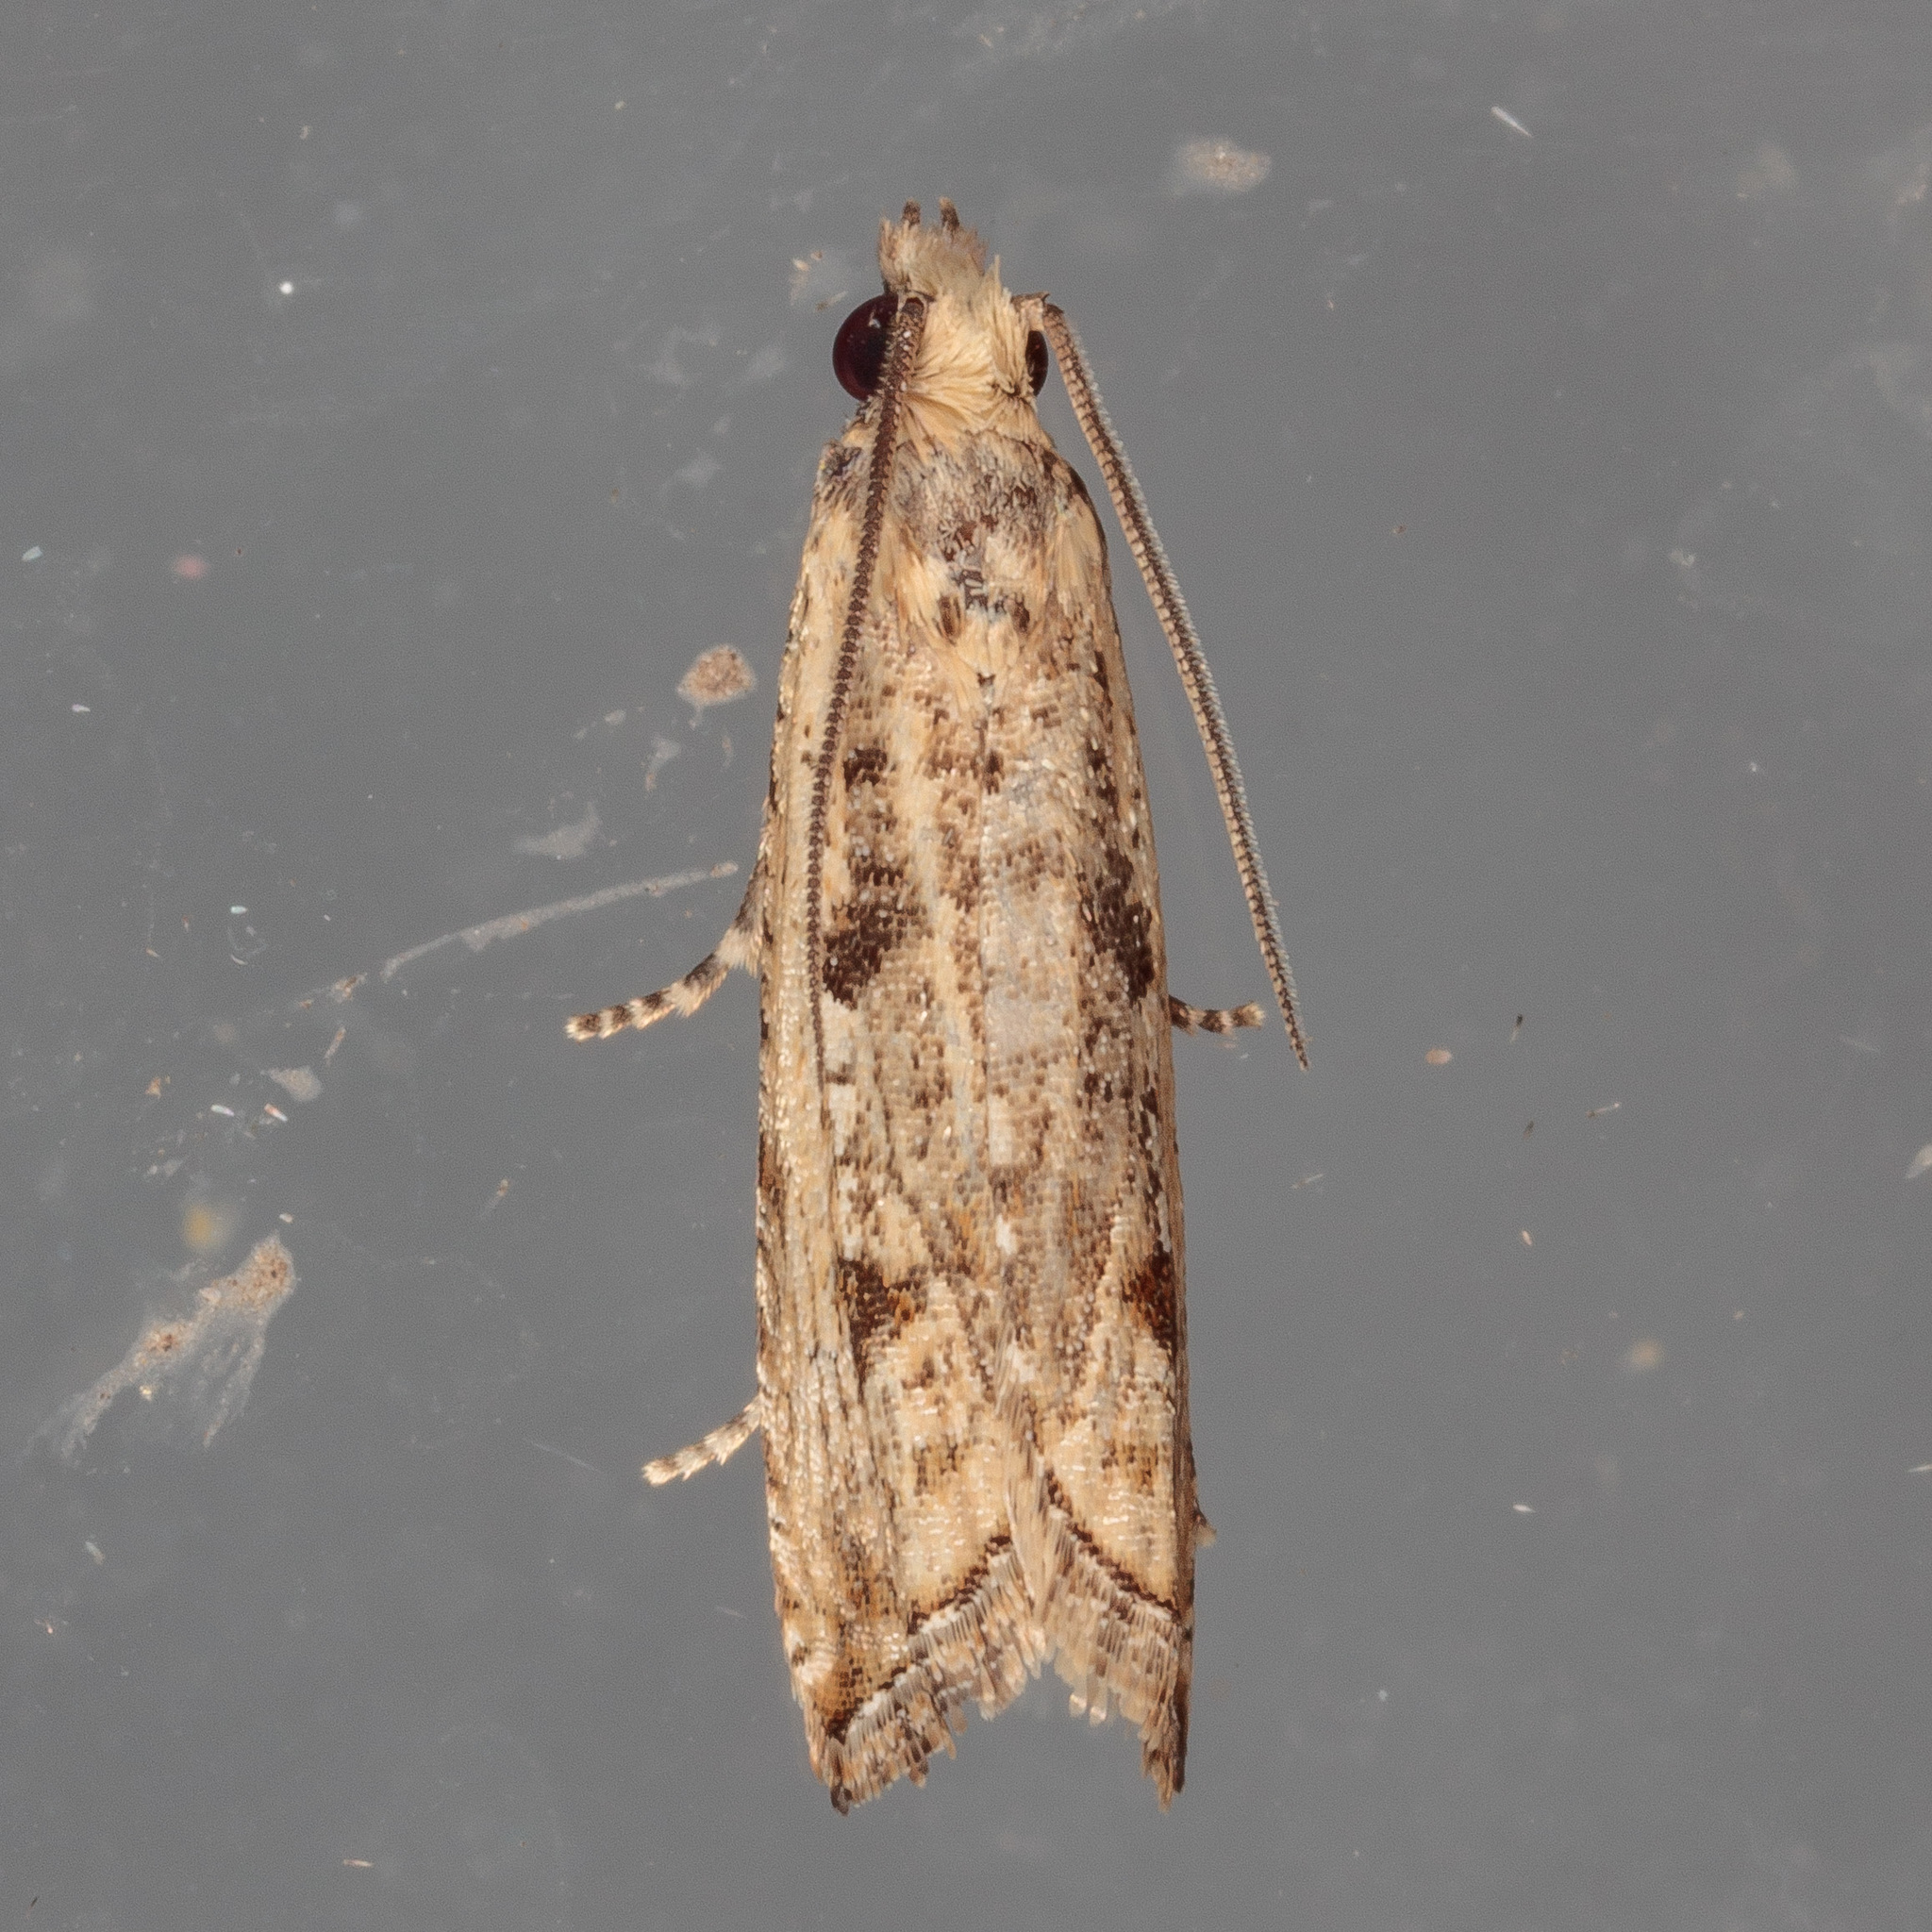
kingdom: Animalia
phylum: Arthropoda
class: Insecta
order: Lepidoptera
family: Tortricidae
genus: Bactra
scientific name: Bactra verutana
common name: Javelin moth
